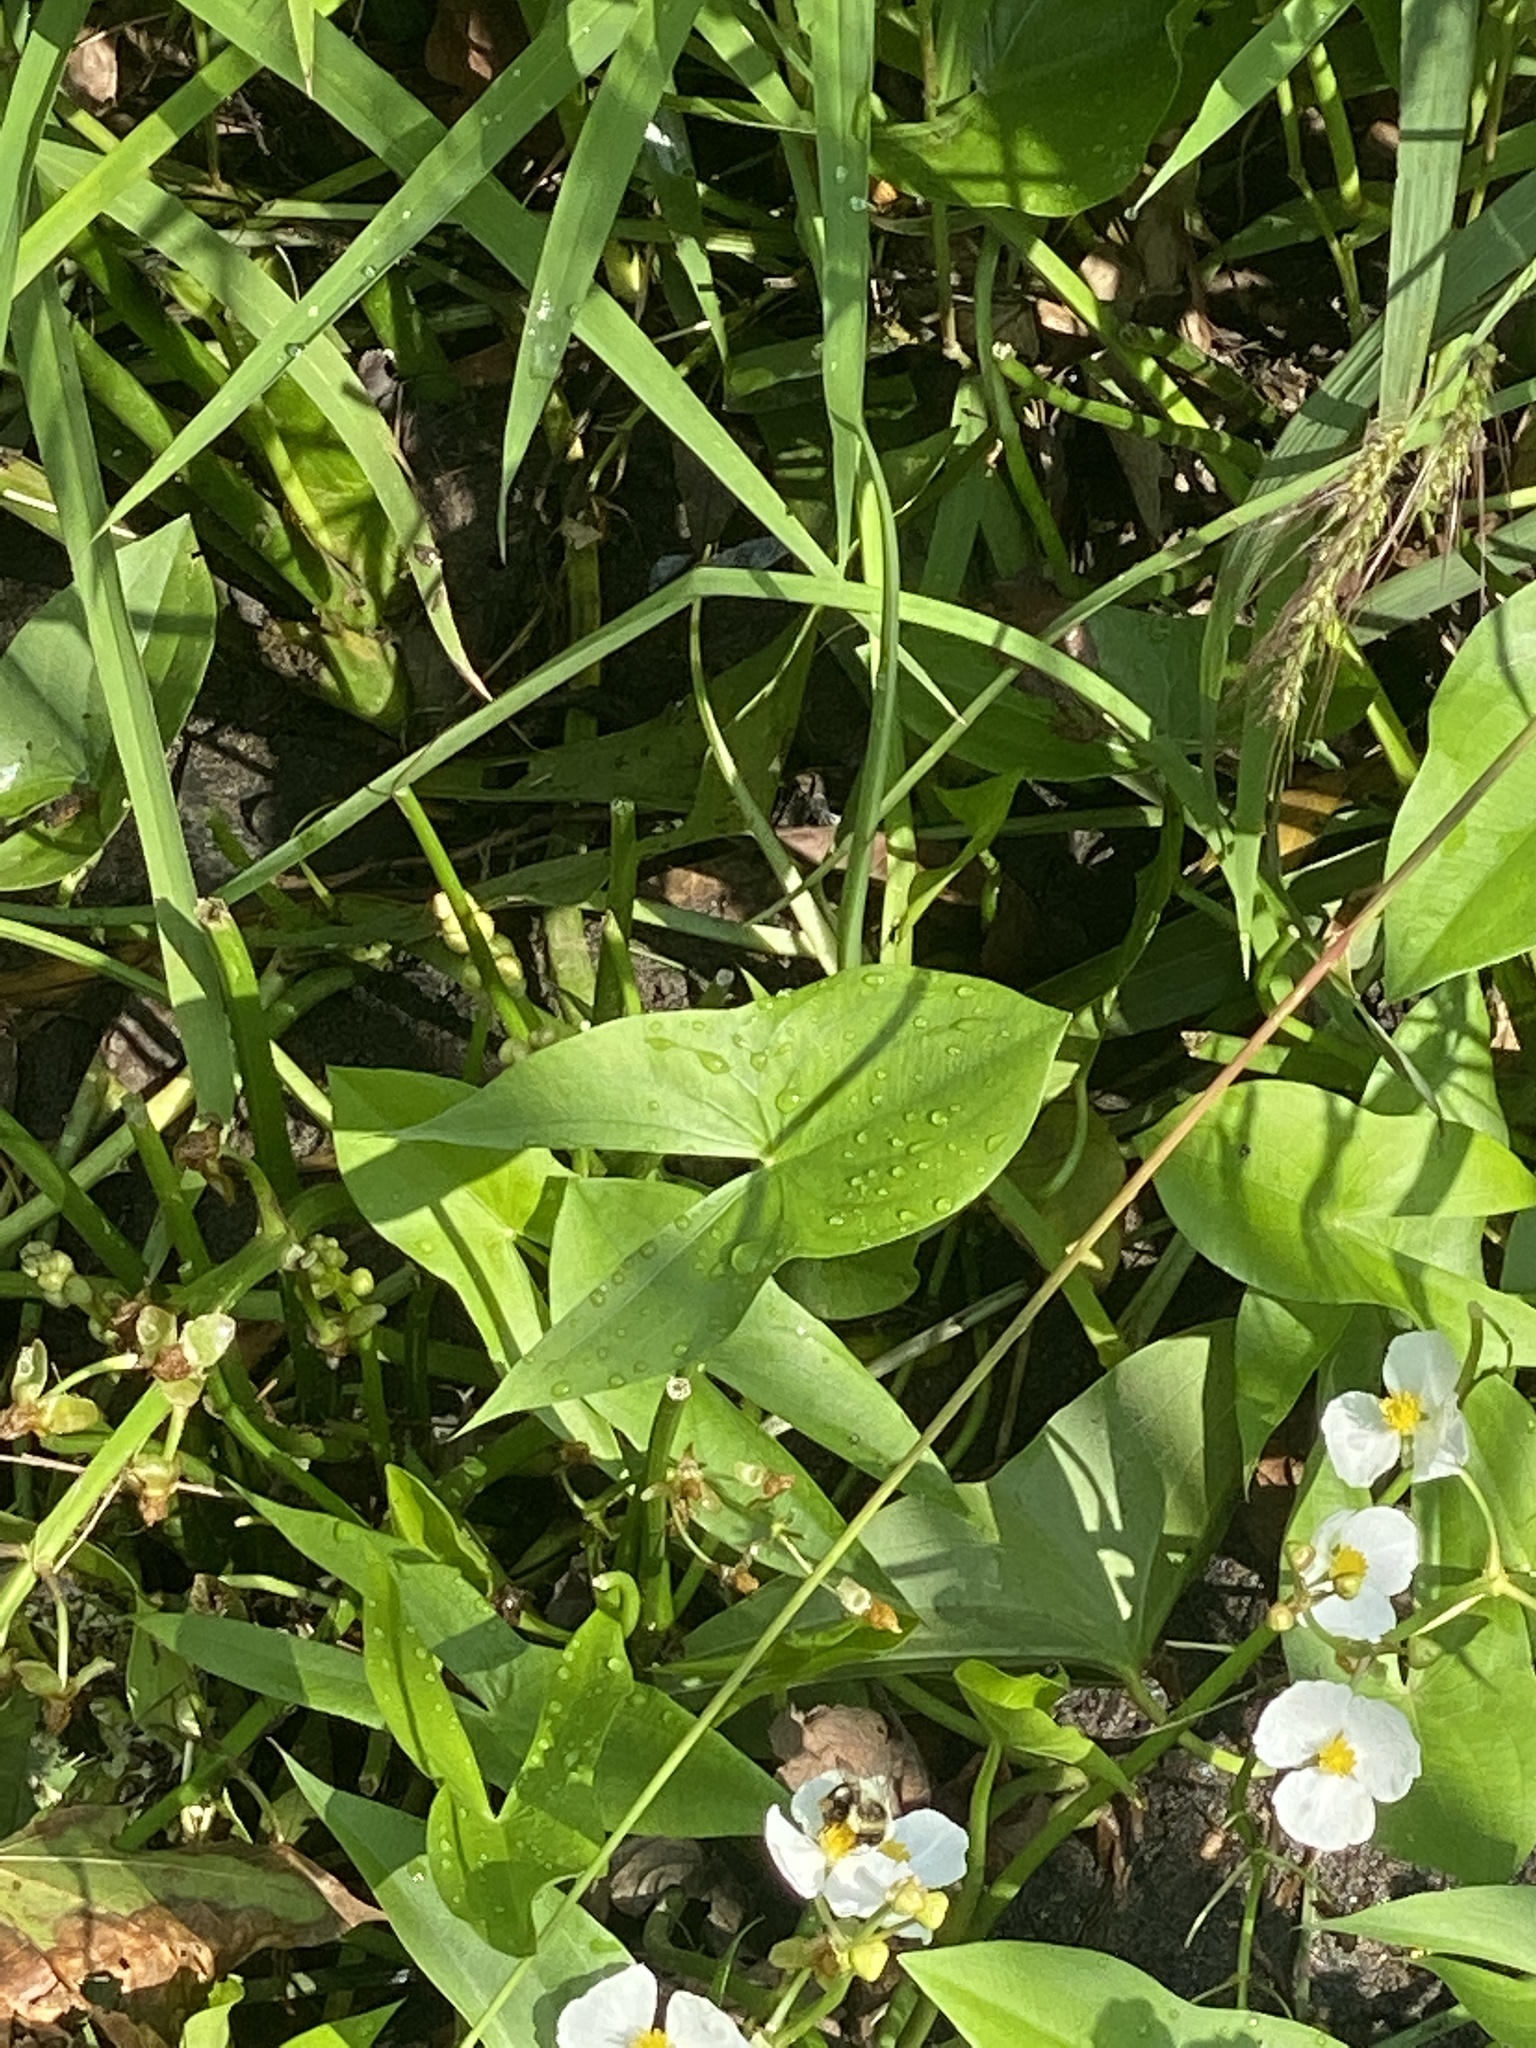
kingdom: Plantae
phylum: Tracheophyta
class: Liliopsida
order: Alismatales
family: Alismataceae
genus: Sagittaria
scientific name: Sagittaria latifolia
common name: Duck-potato
